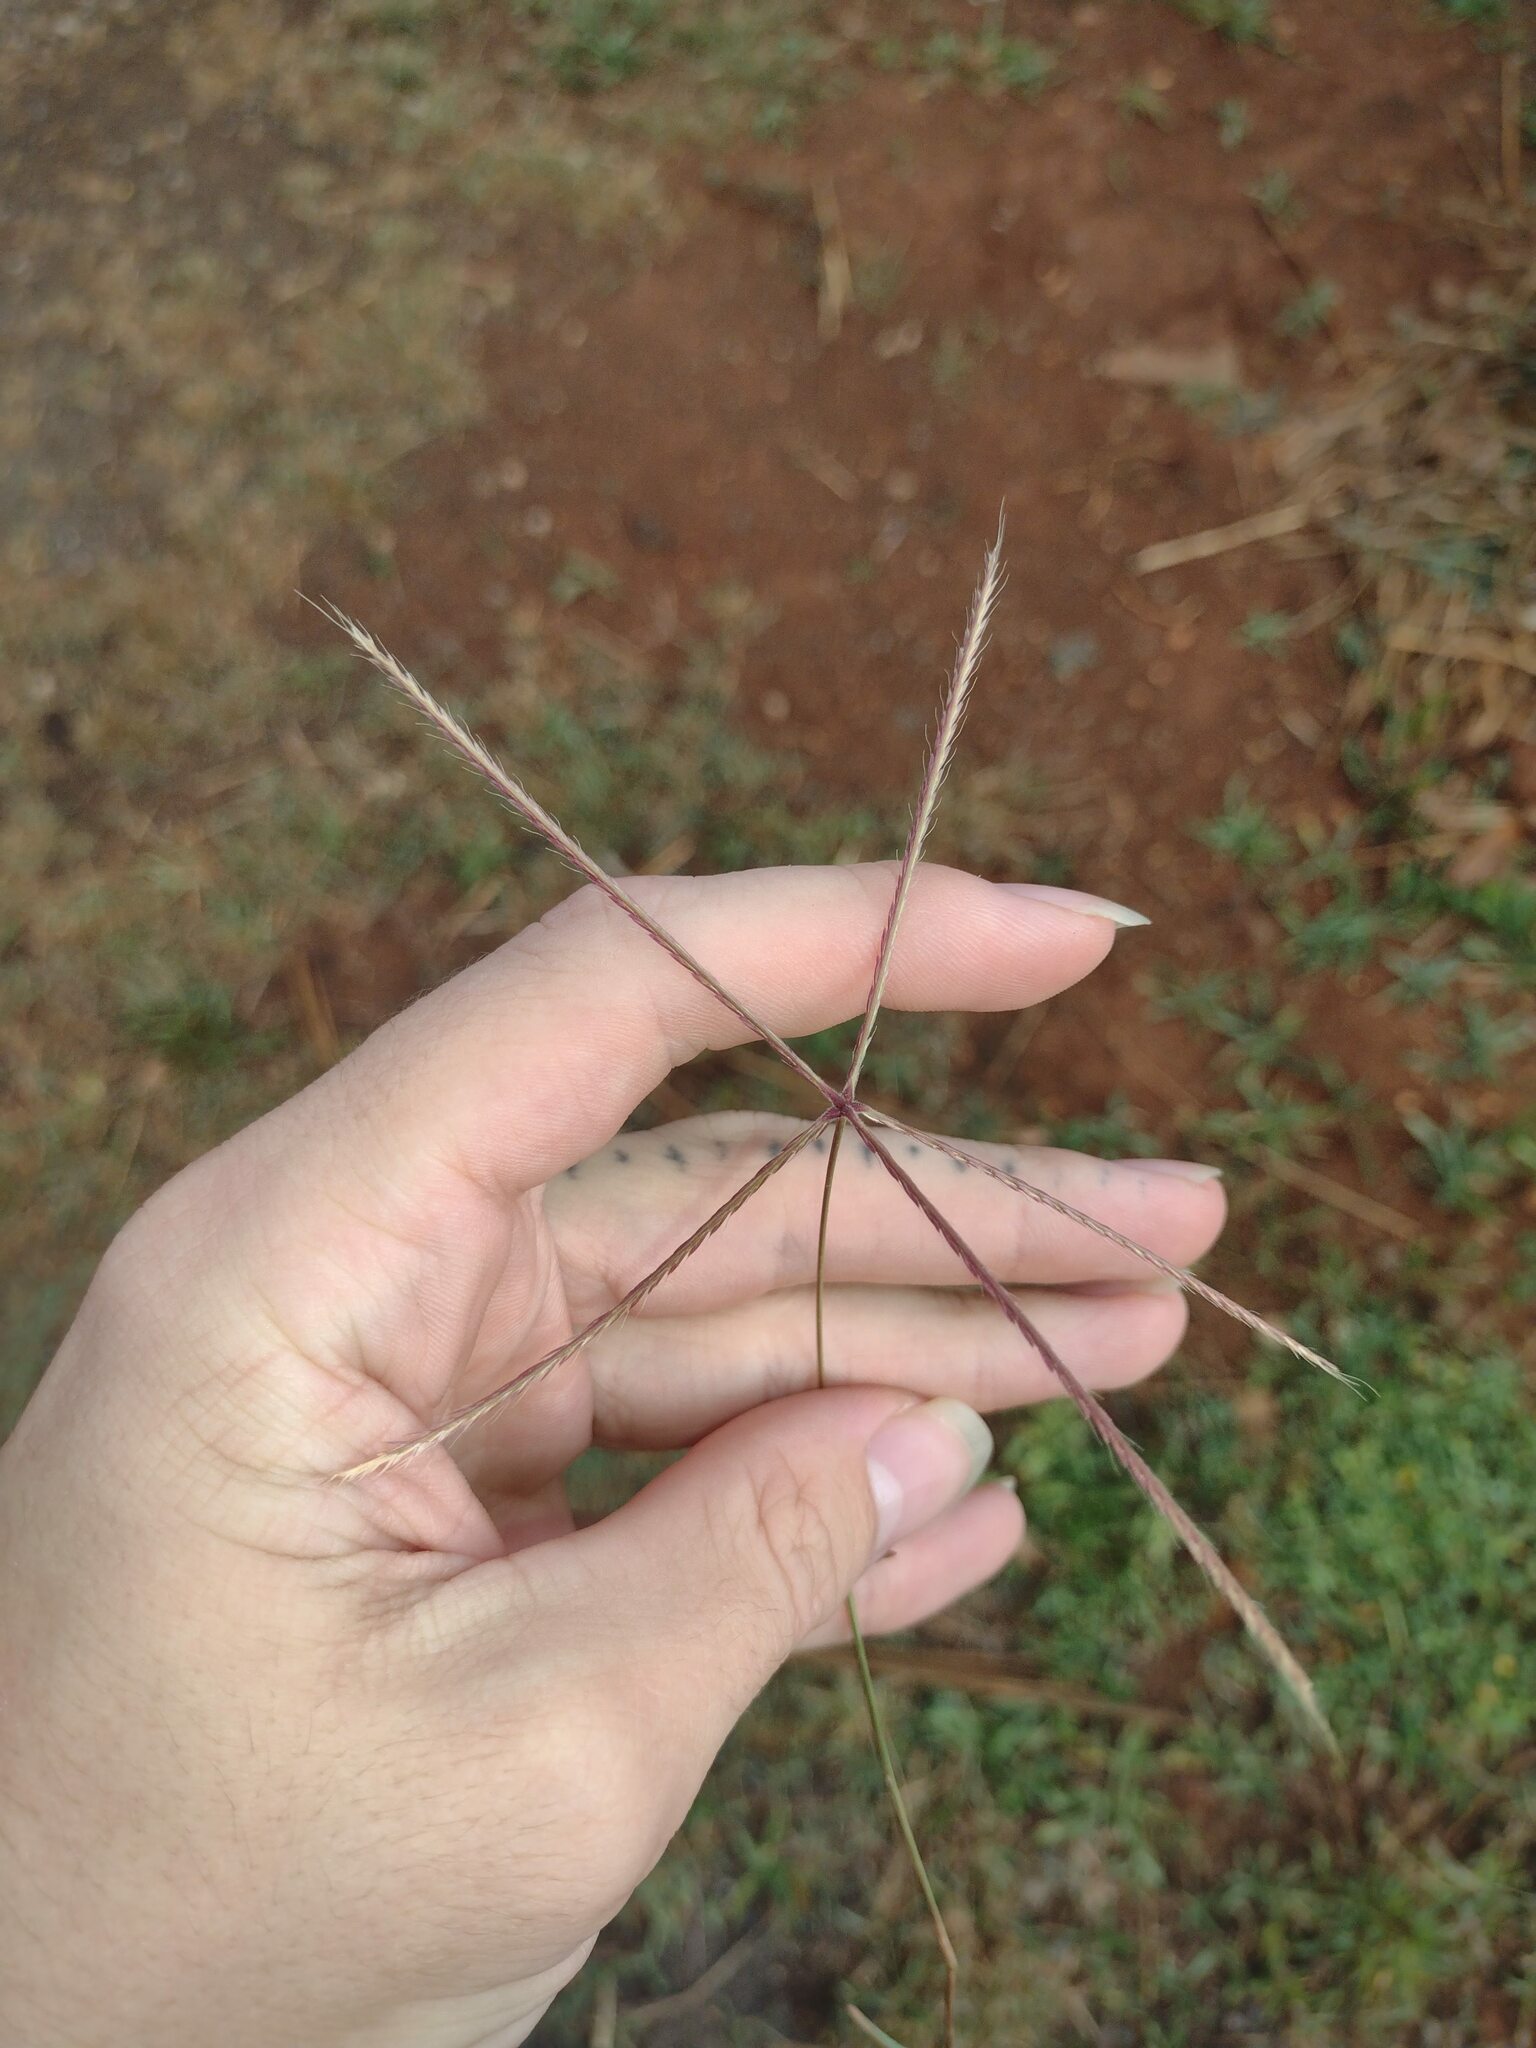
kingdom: Plantae
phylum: Tracheophyta
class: Liliopsida
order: Poales
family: Poaceae
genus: Chloris
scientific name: Chloris divaricata
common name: Spreading windmill grass
